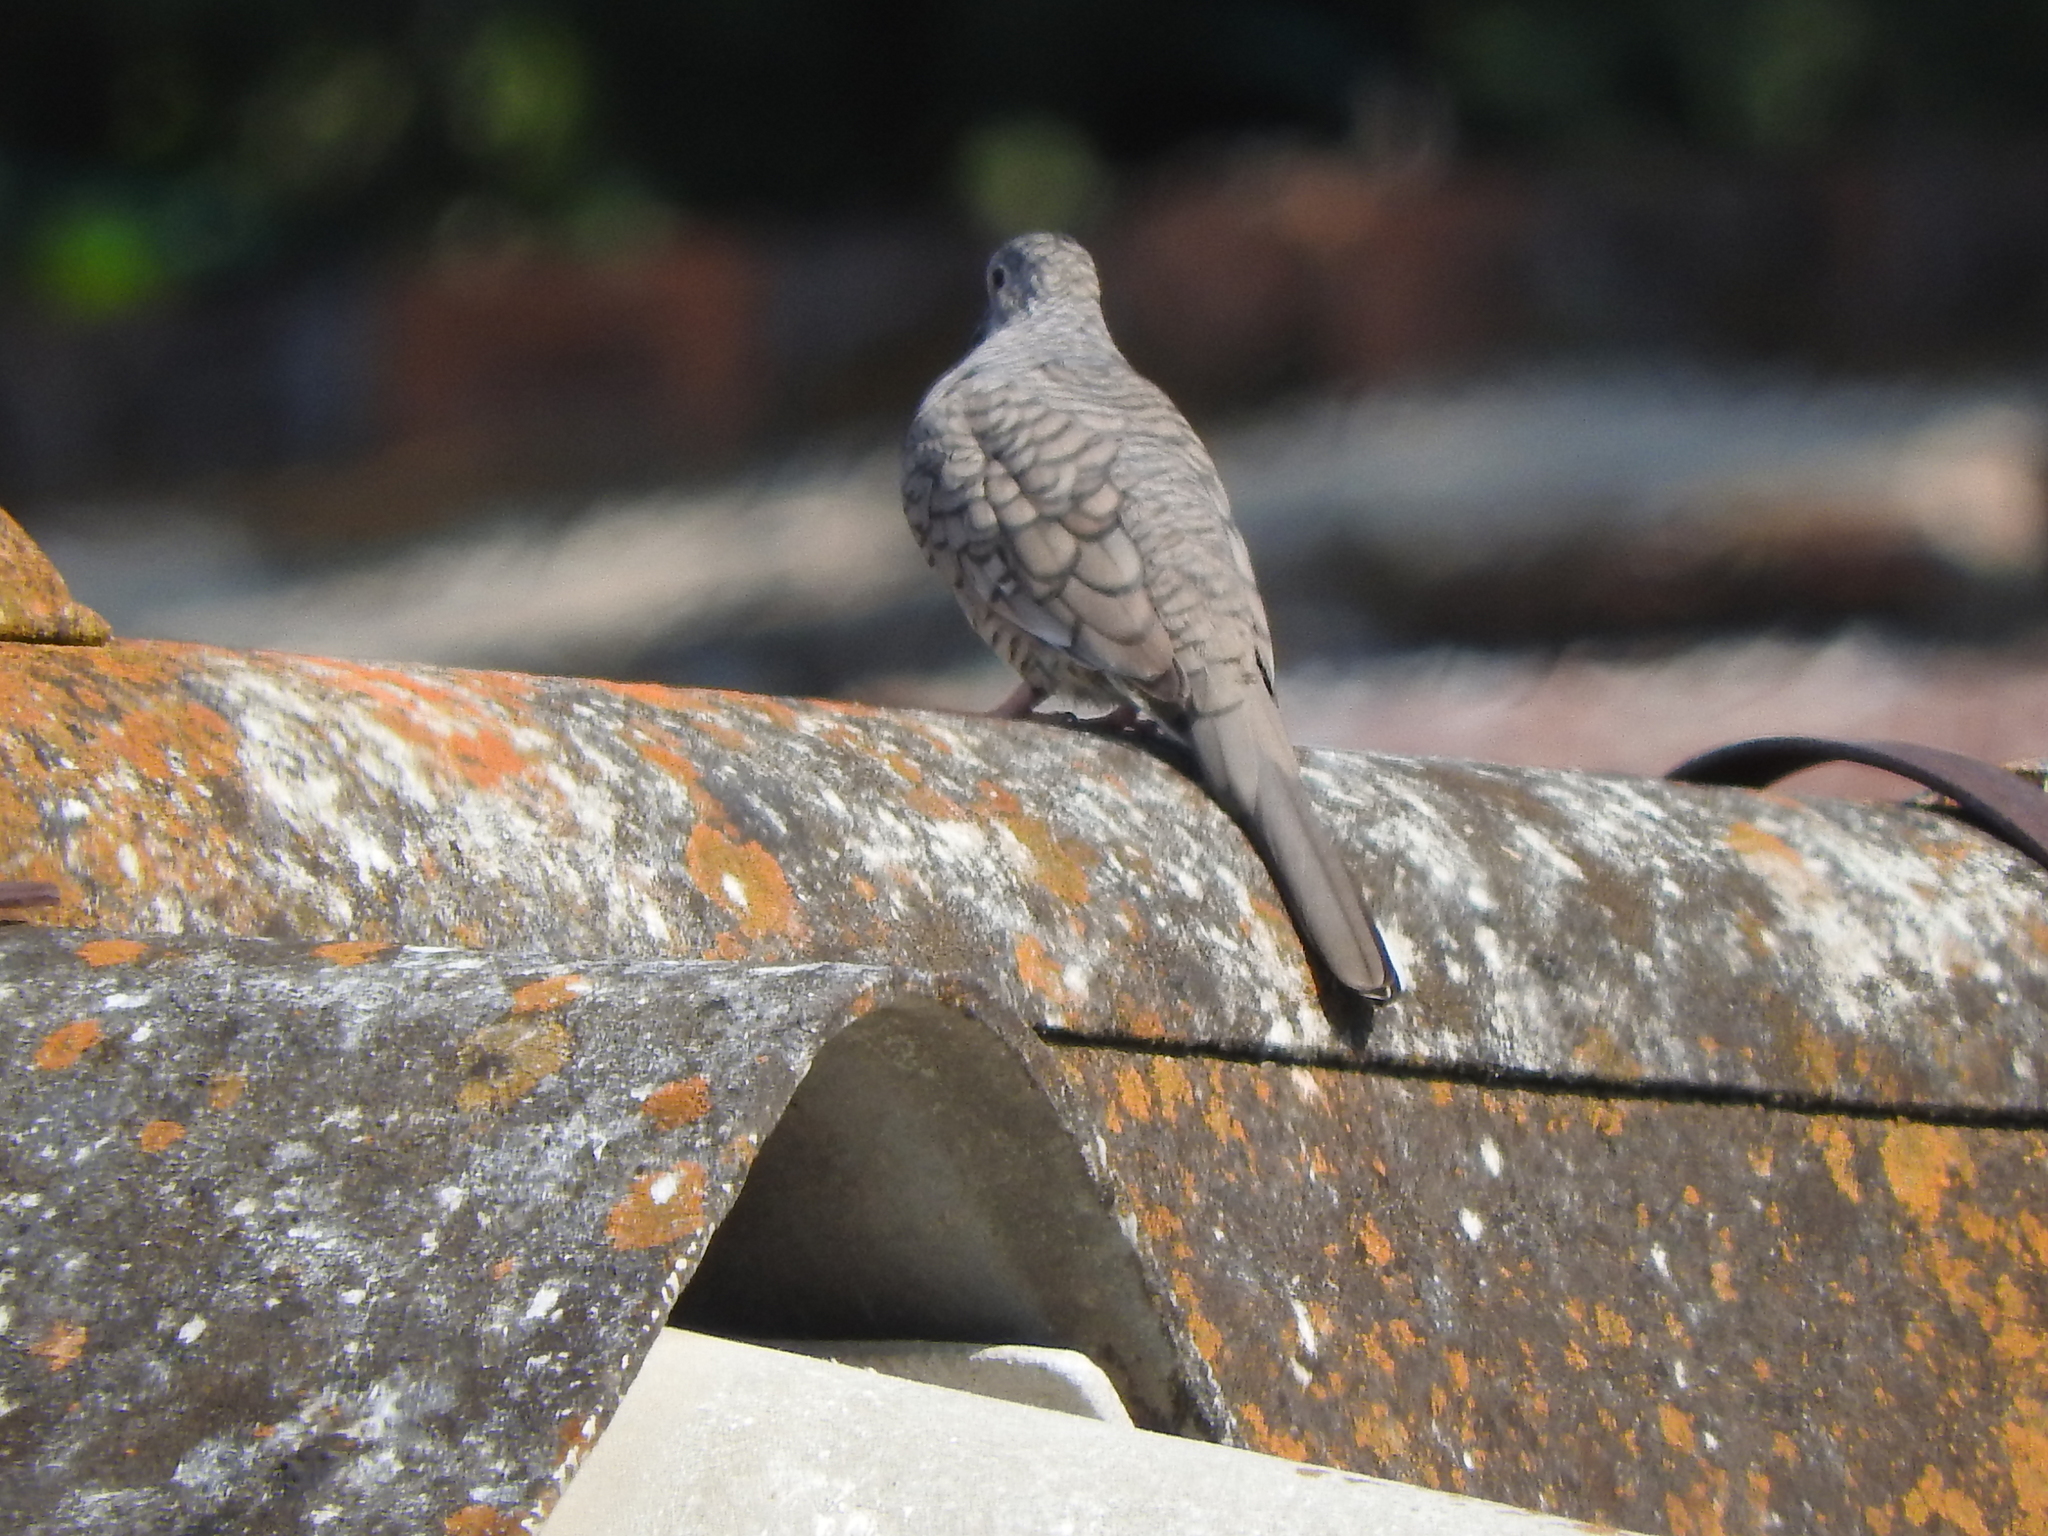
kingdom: Animalia
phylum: Chordata
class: Aves
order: Columbiformes
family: Columbidae
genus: Columbina
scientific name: Columbina inca
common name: Inca dove
